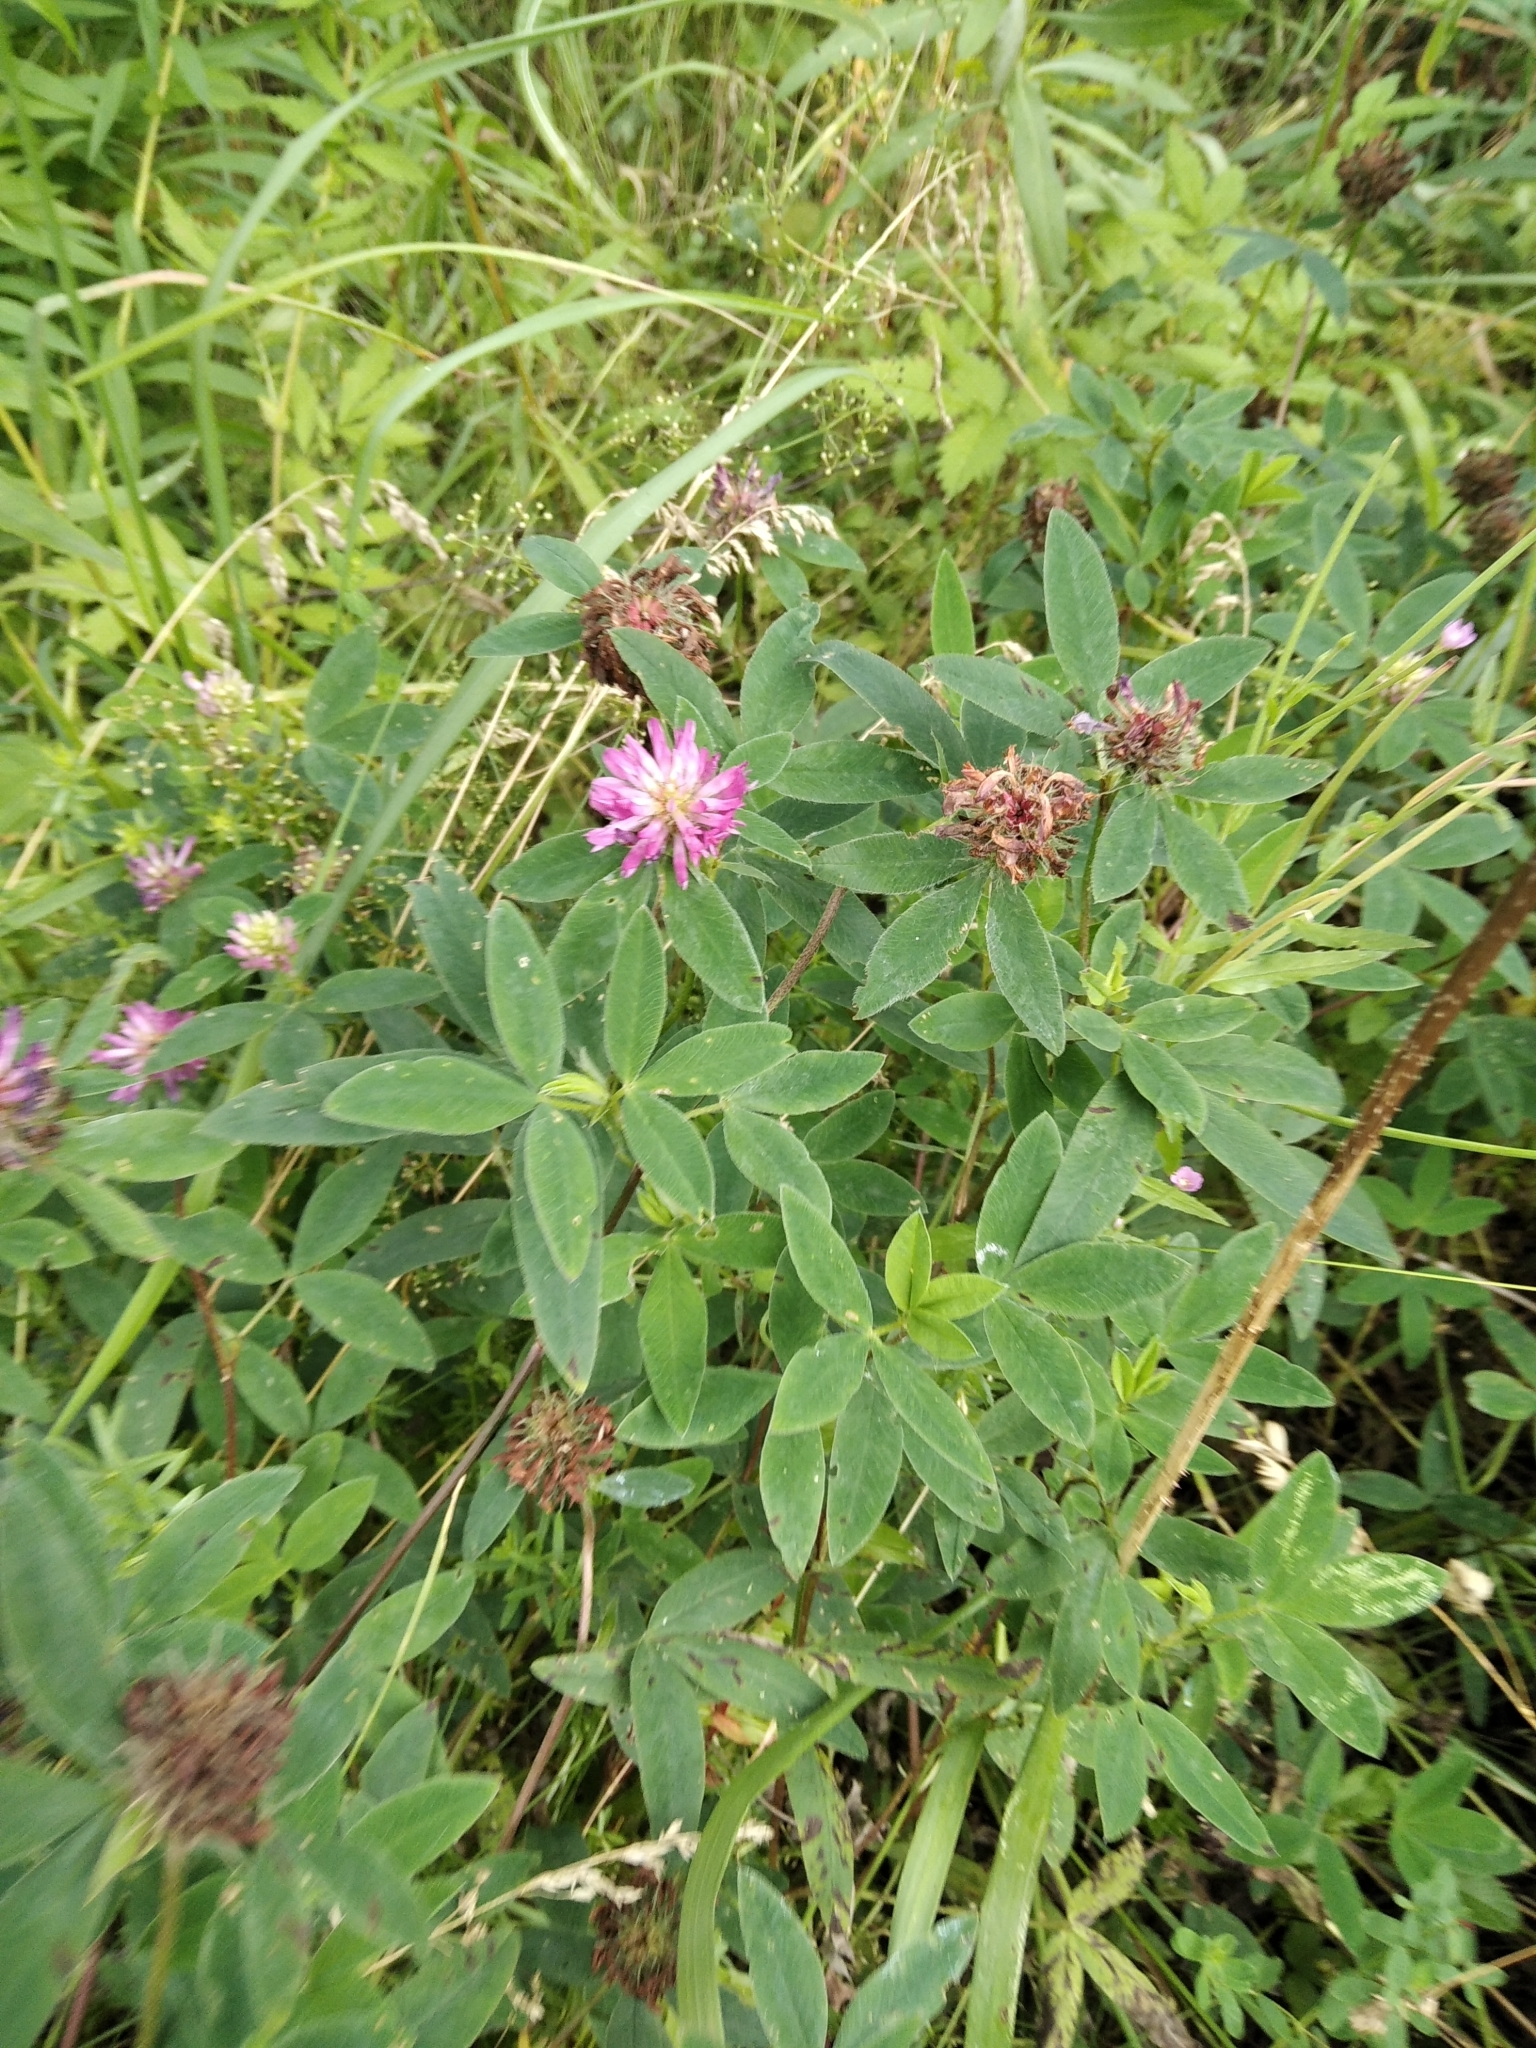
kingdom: Plantae
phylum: Tracheophyta
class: Magnoliopsida
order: Fabales
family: Fabaceae
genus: Trifolium
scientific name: Trifolium medium
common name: Zigzag clover
